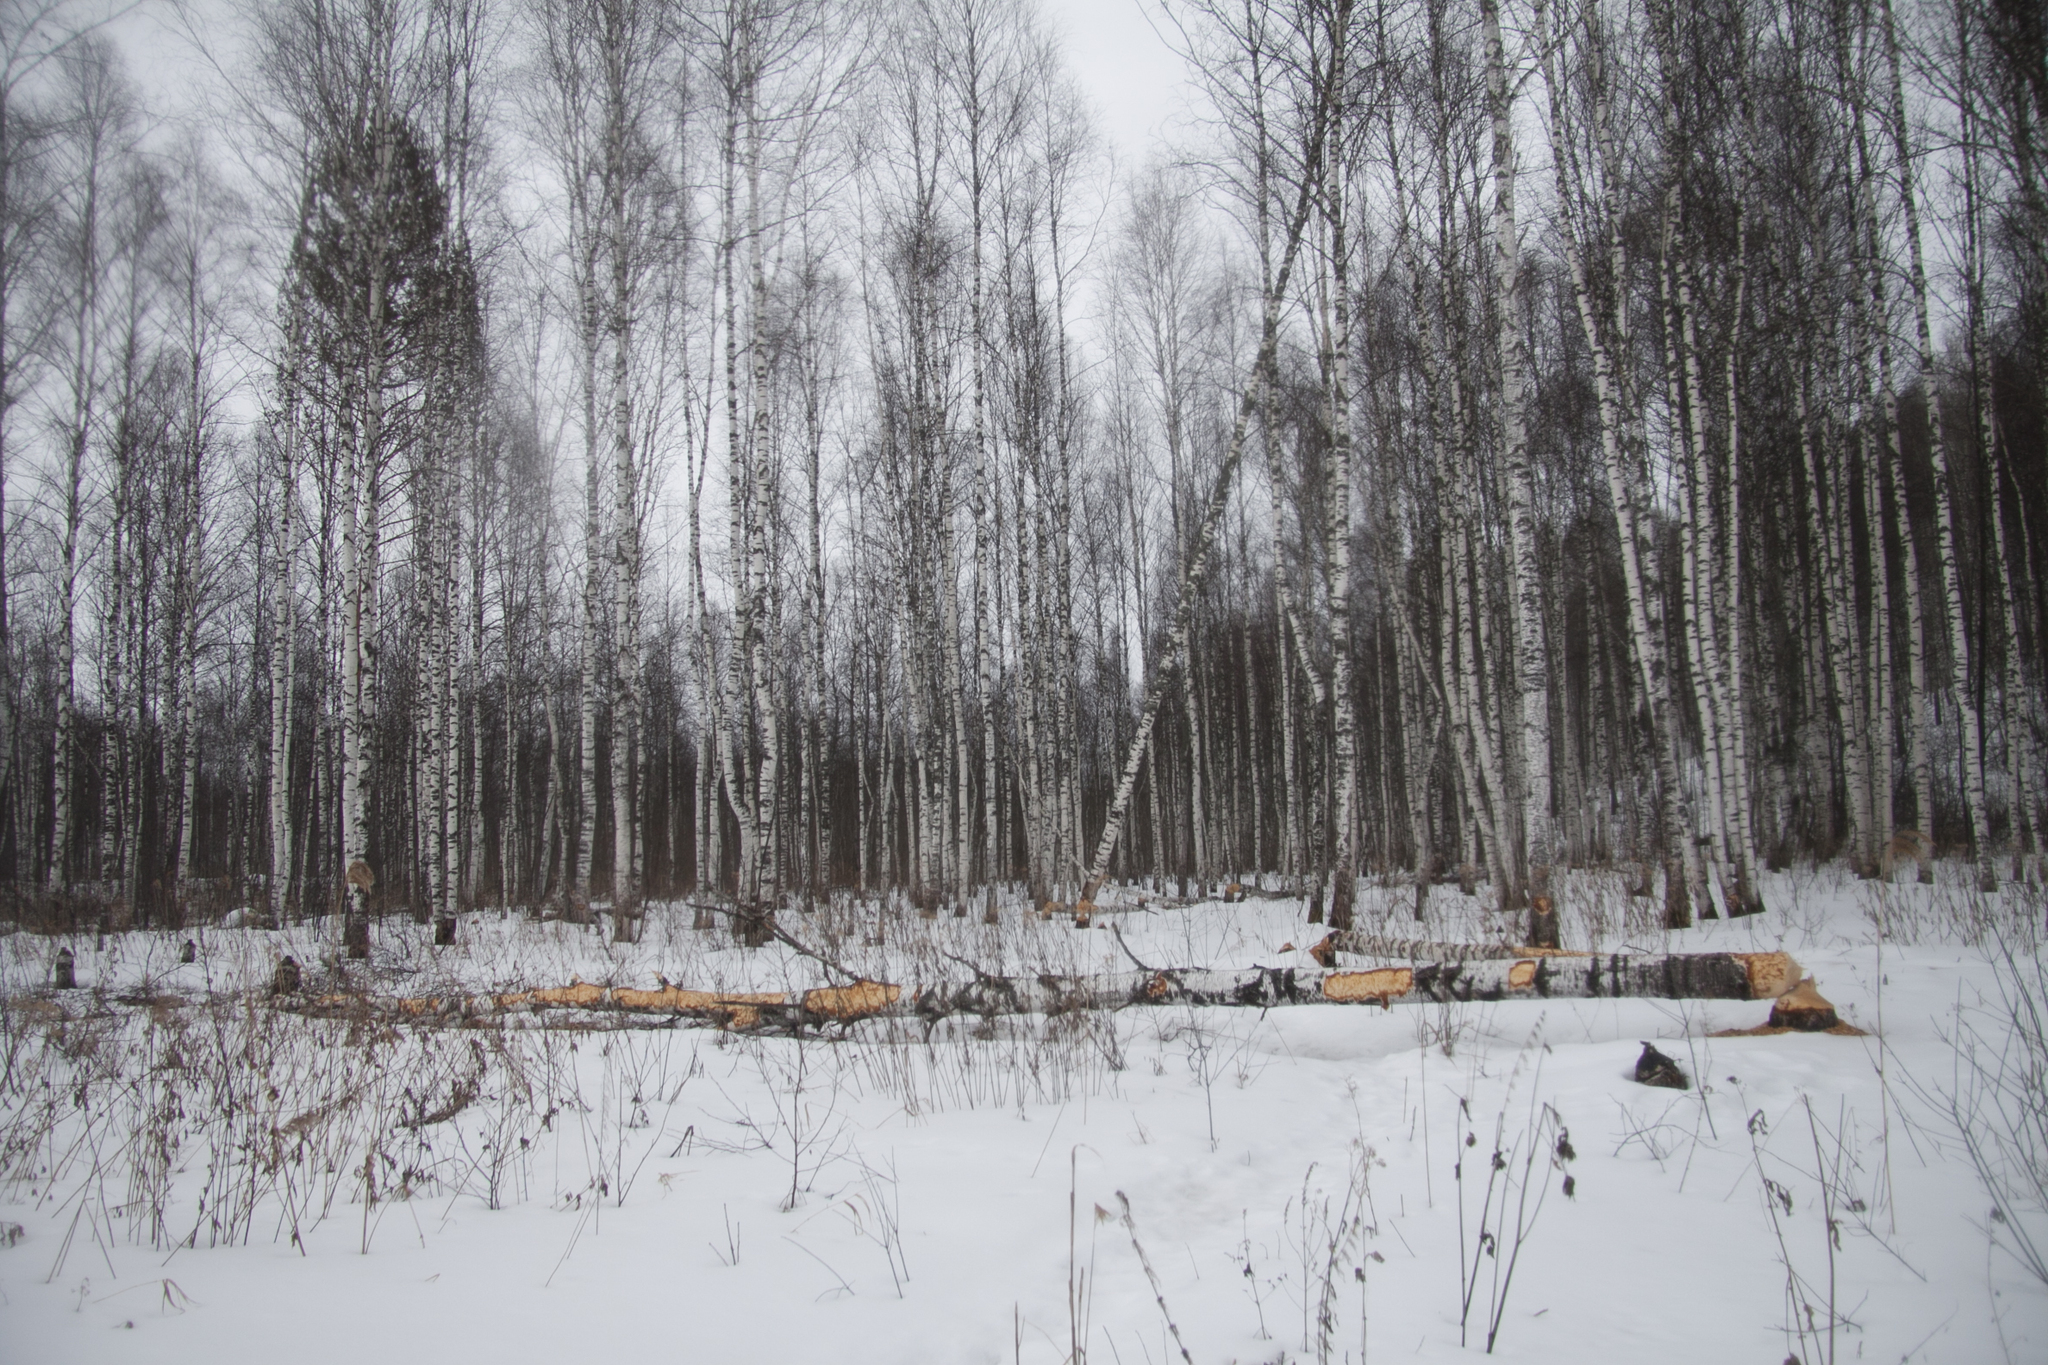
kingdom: Animalia
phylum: Chordata
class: Mammalia
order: Rodentia
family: Castoridae
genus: Castor
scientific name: Castor fiber
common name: Eurasian beaver
